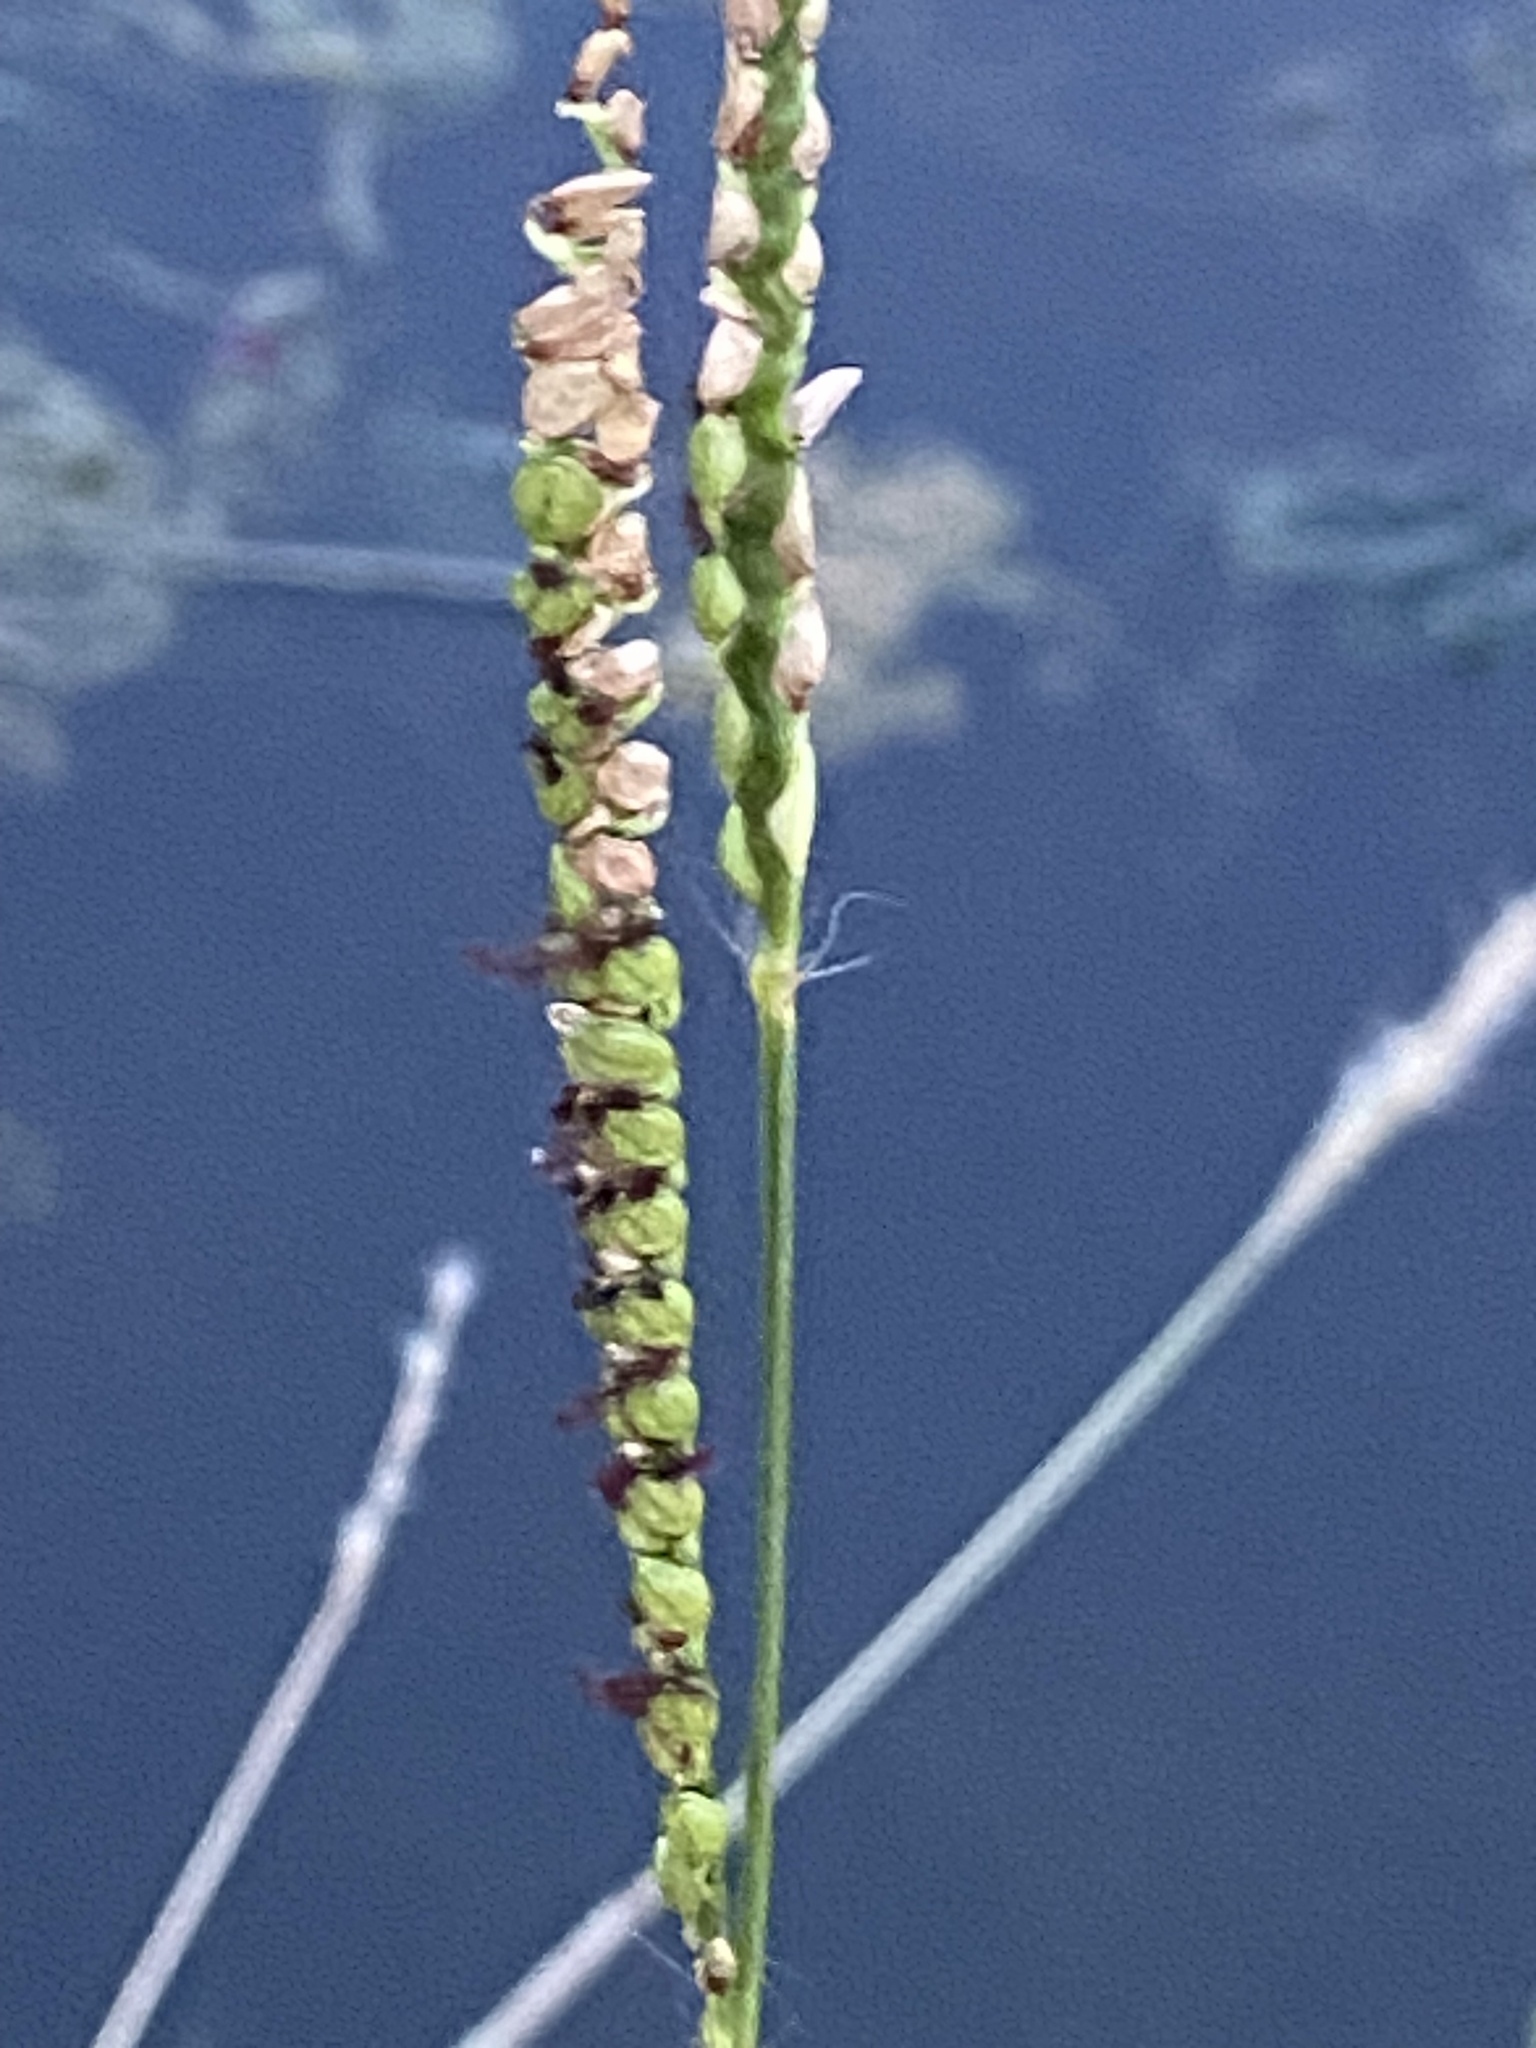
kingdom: Plantae
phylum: Tracheophyta
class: Liliopsida
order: Poales
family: Poaceae
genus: Paspalum
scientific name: Paspalum floridanum
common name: Florida paspalum
